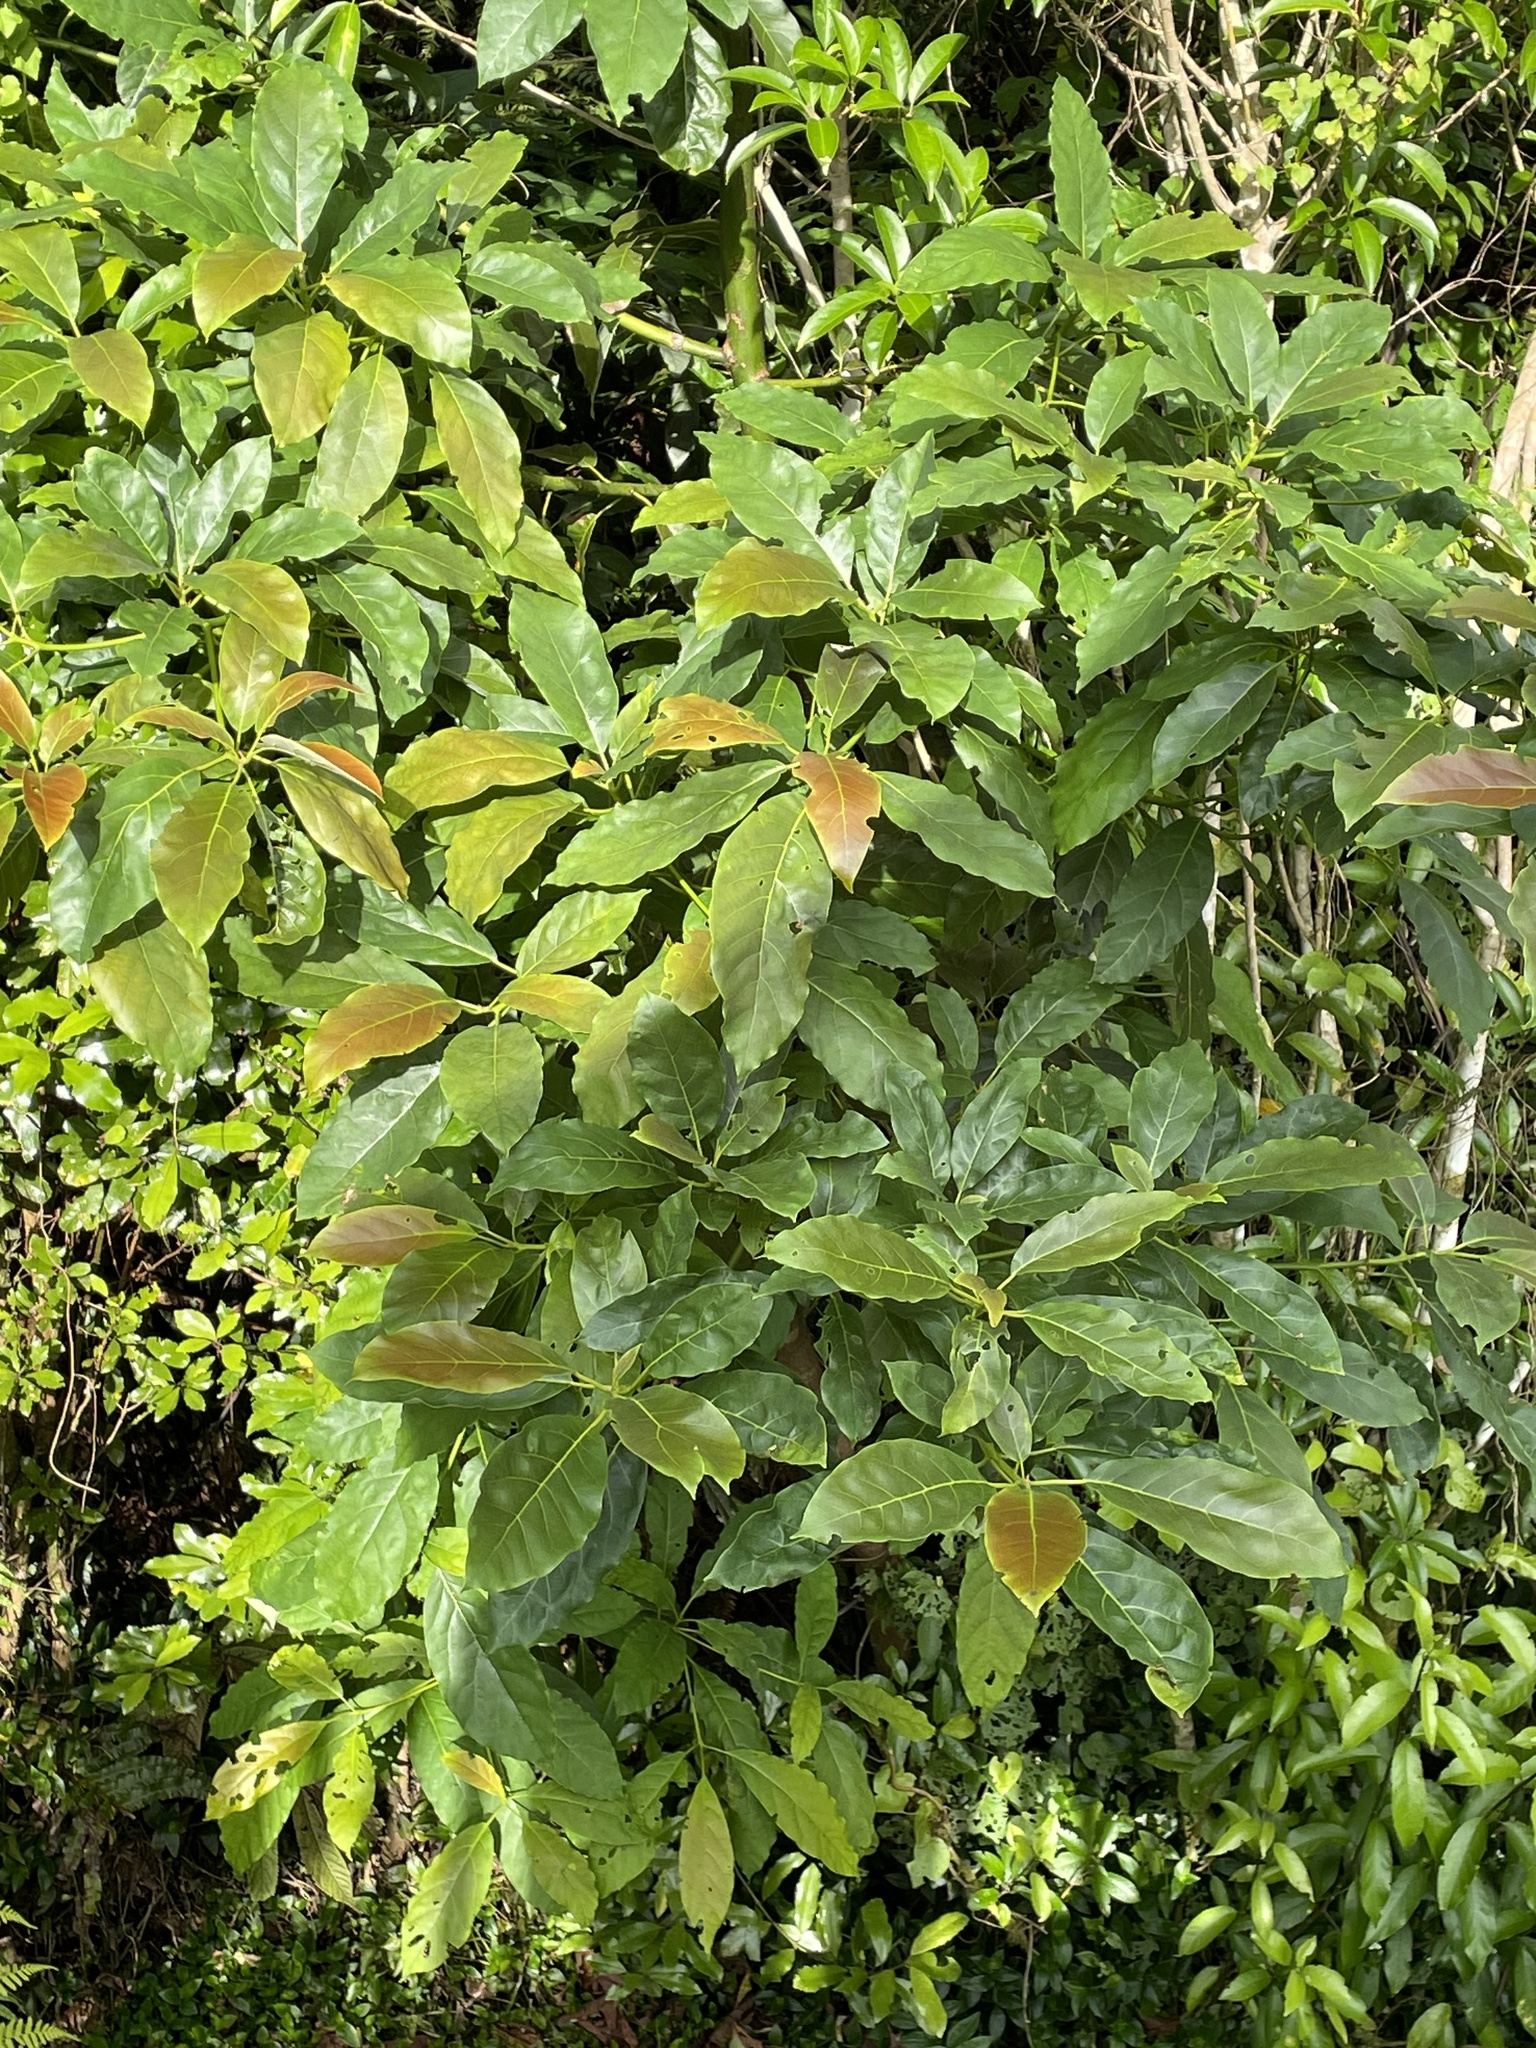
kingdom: Plantae
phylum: Tracheophyta
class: Magnoliopsida
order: Laurales
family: Lauraceae
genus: Persea
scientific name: Persea americana
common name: Avocado
